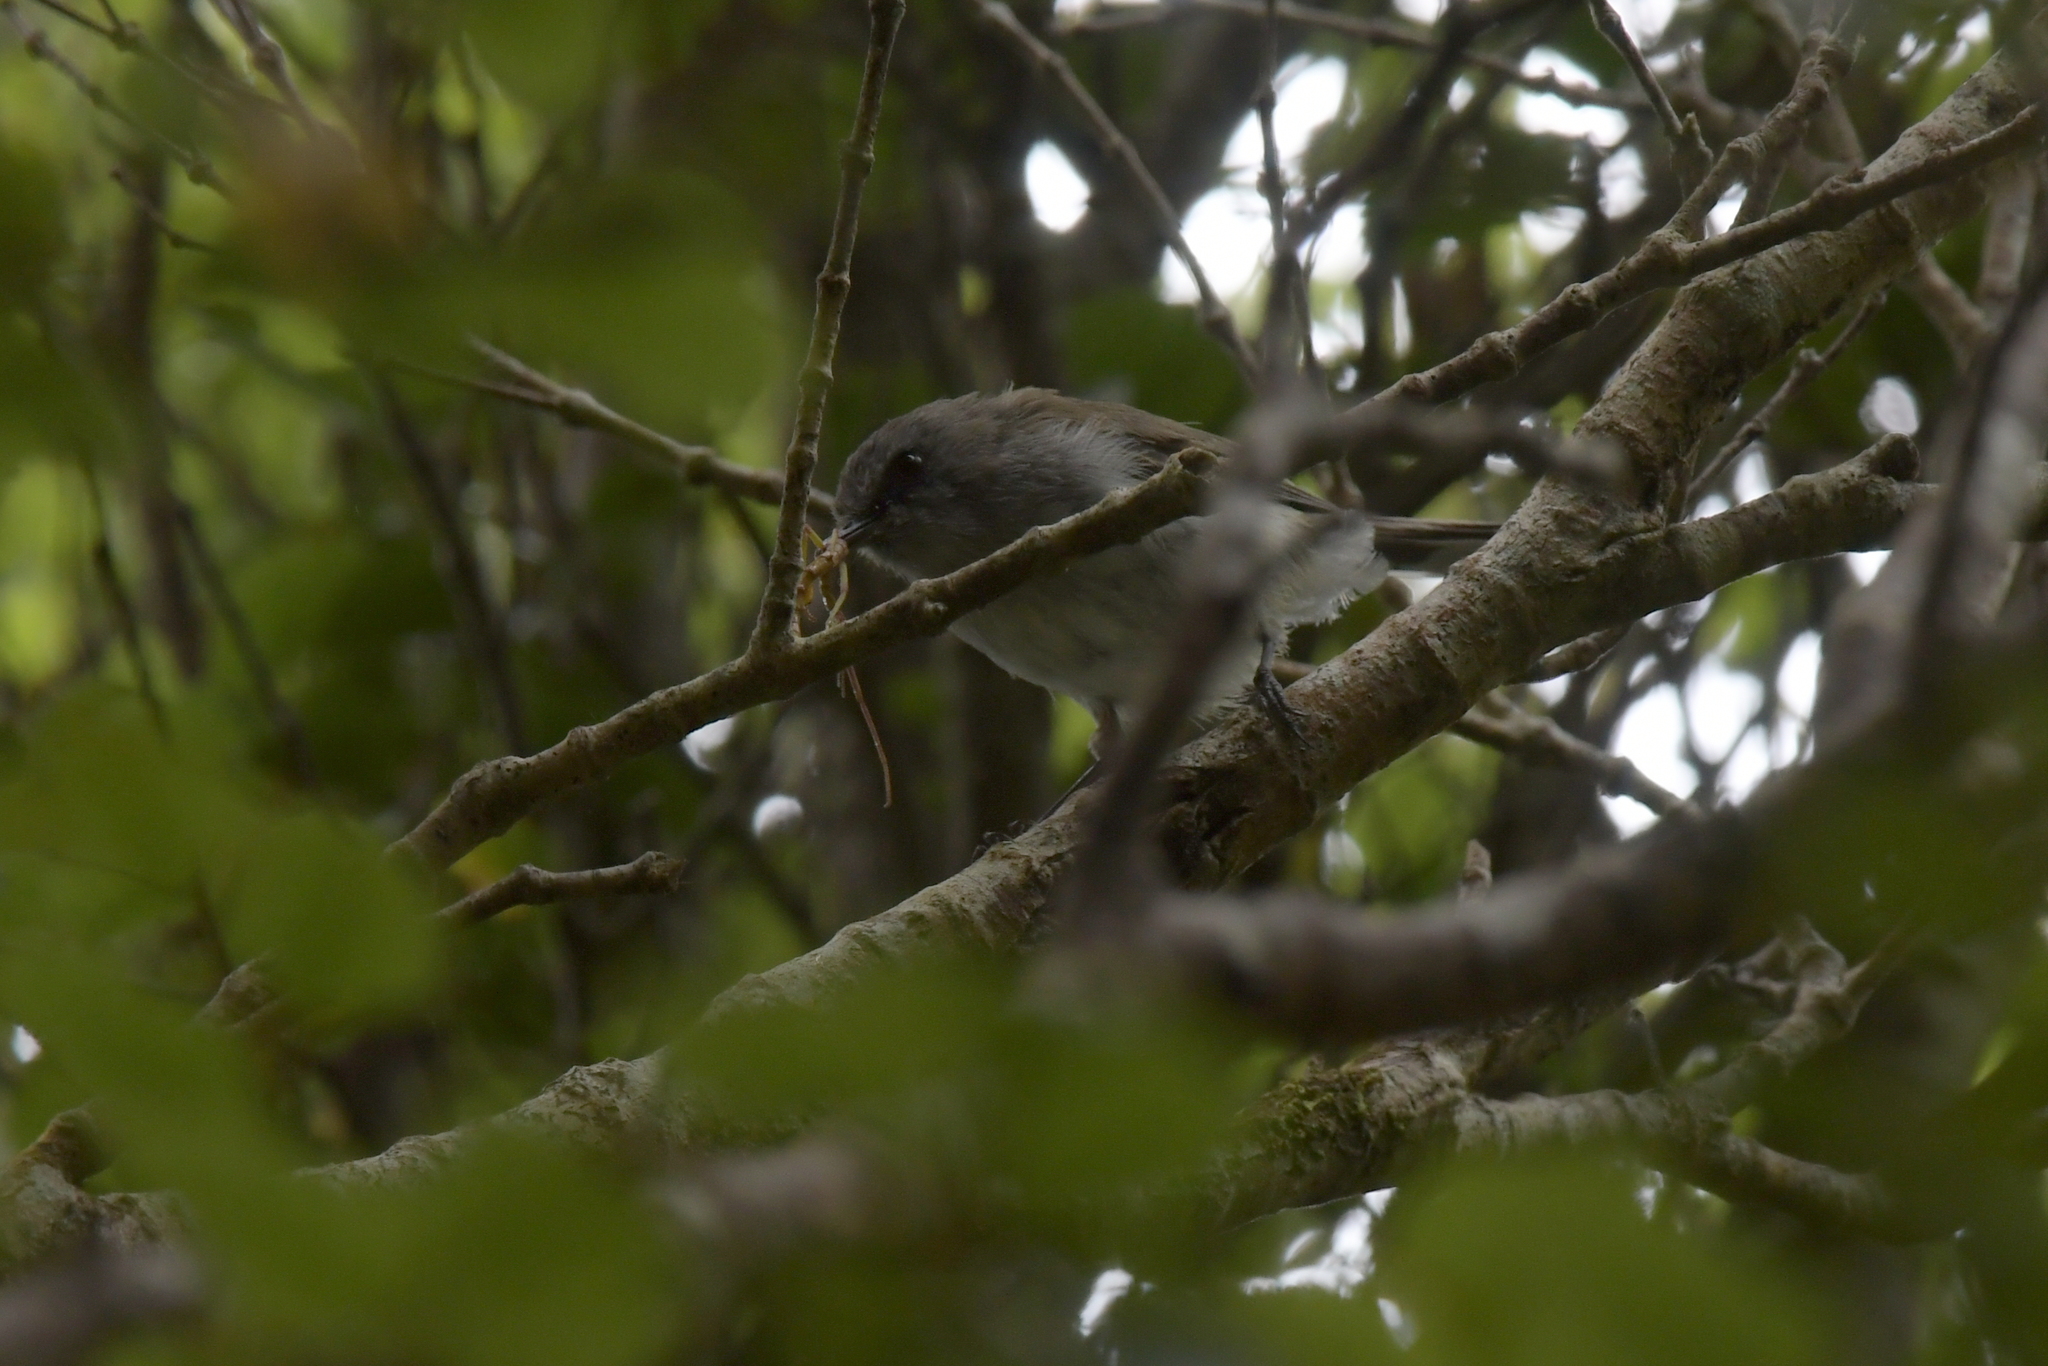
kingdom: Animalia
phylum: Chordata
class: Aves
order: Passeriformes
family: Acanthizidae
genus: Gerygone
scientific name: Gerygone igata
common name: Grey gerygone
